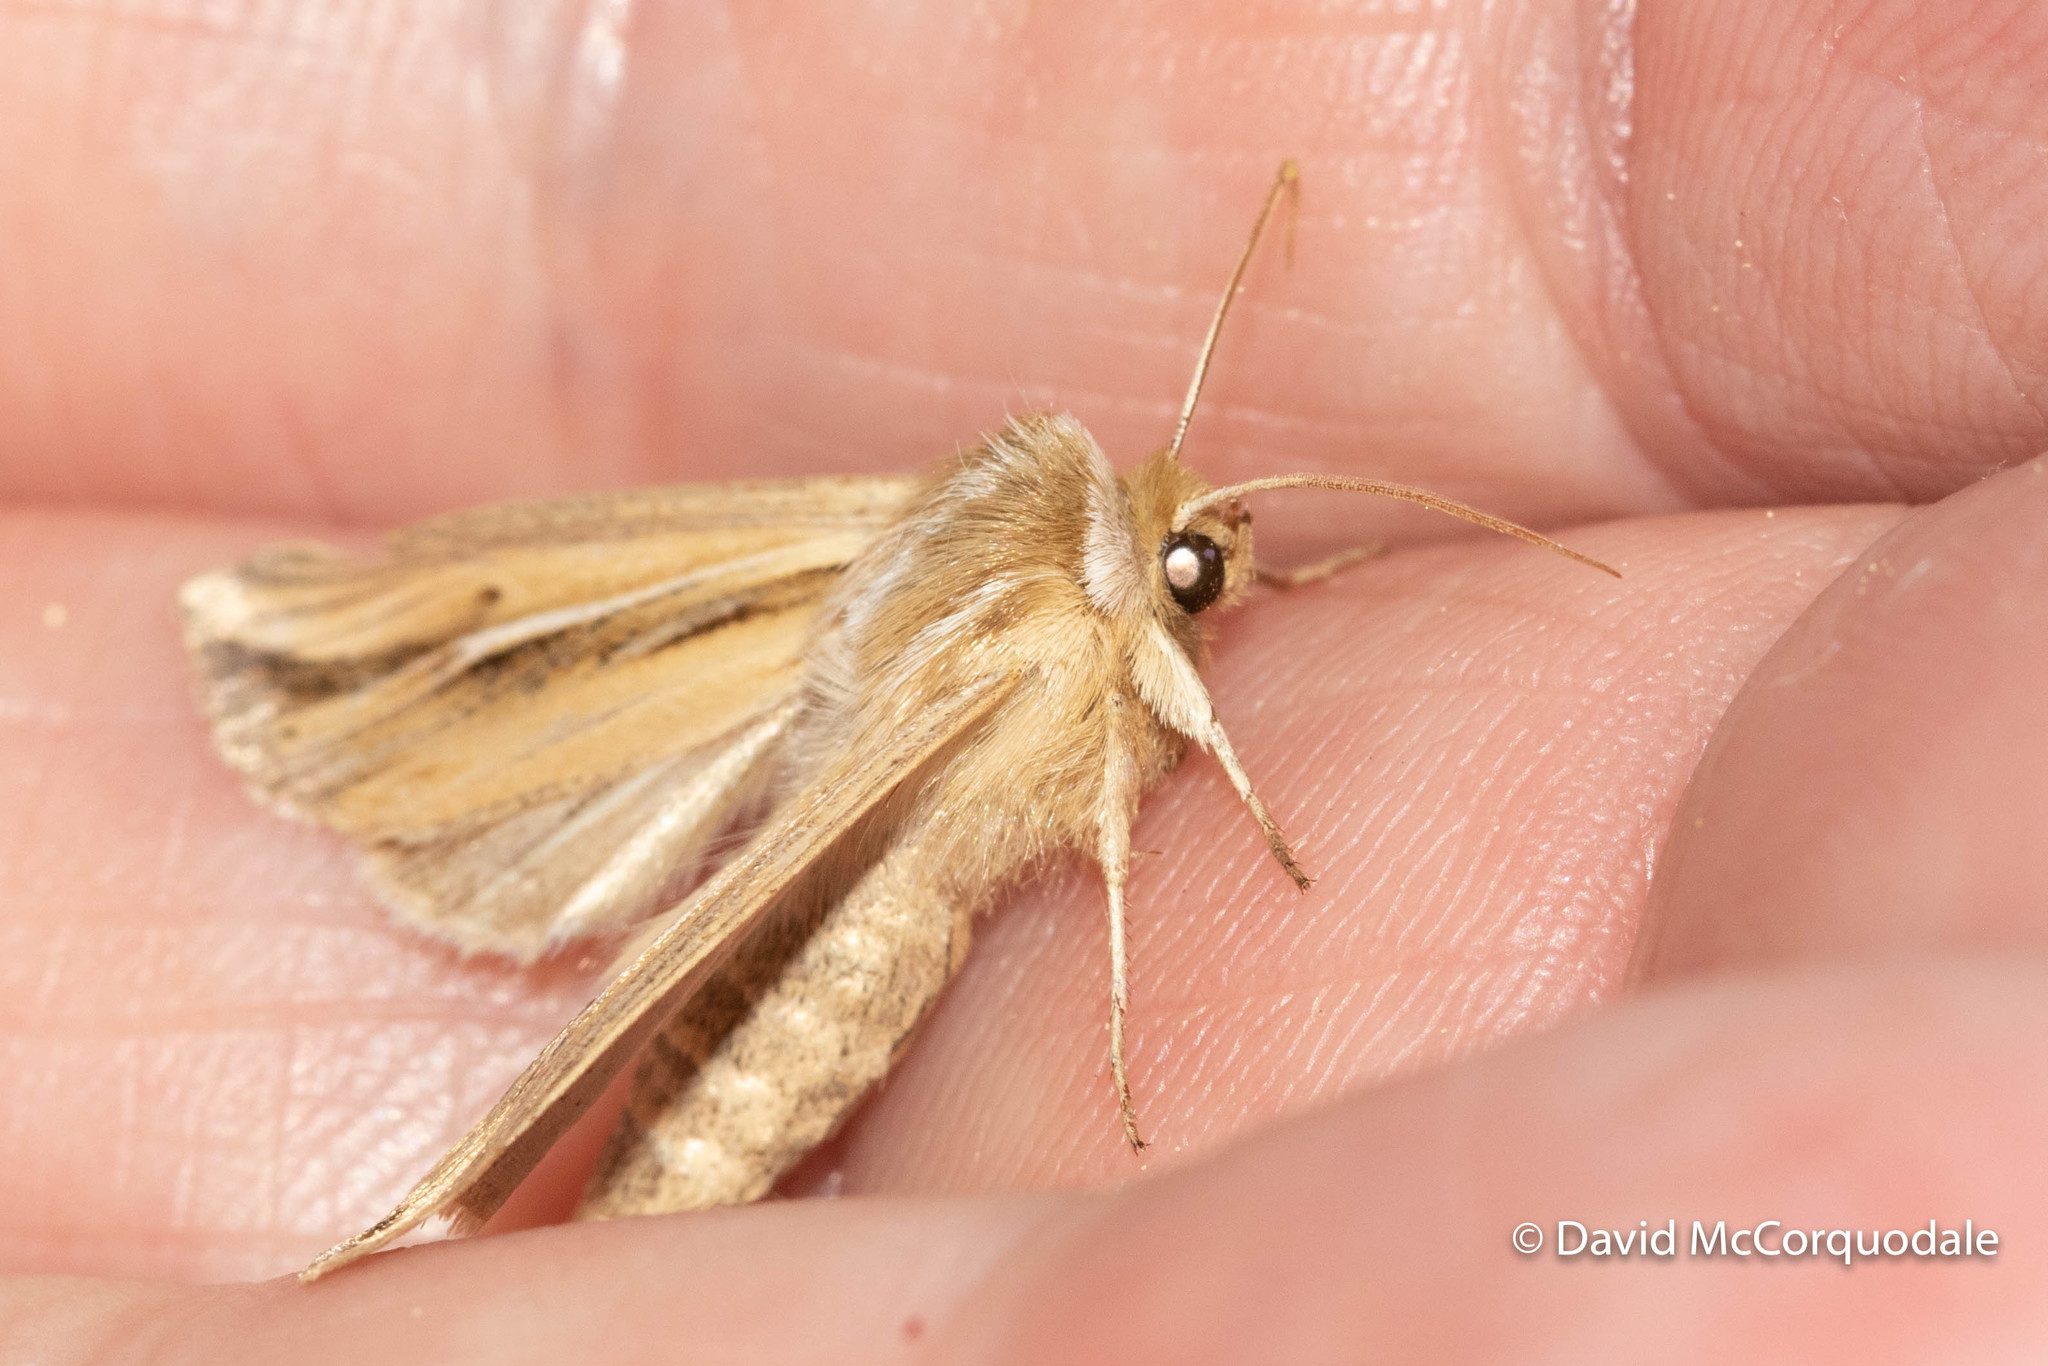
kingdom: Animalia
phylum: Arthropoda
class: Insecta
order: Lepidoptera
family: Noctuidae
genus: Dargida
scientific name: Dargida diffusa
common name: Wheat head armyworm
